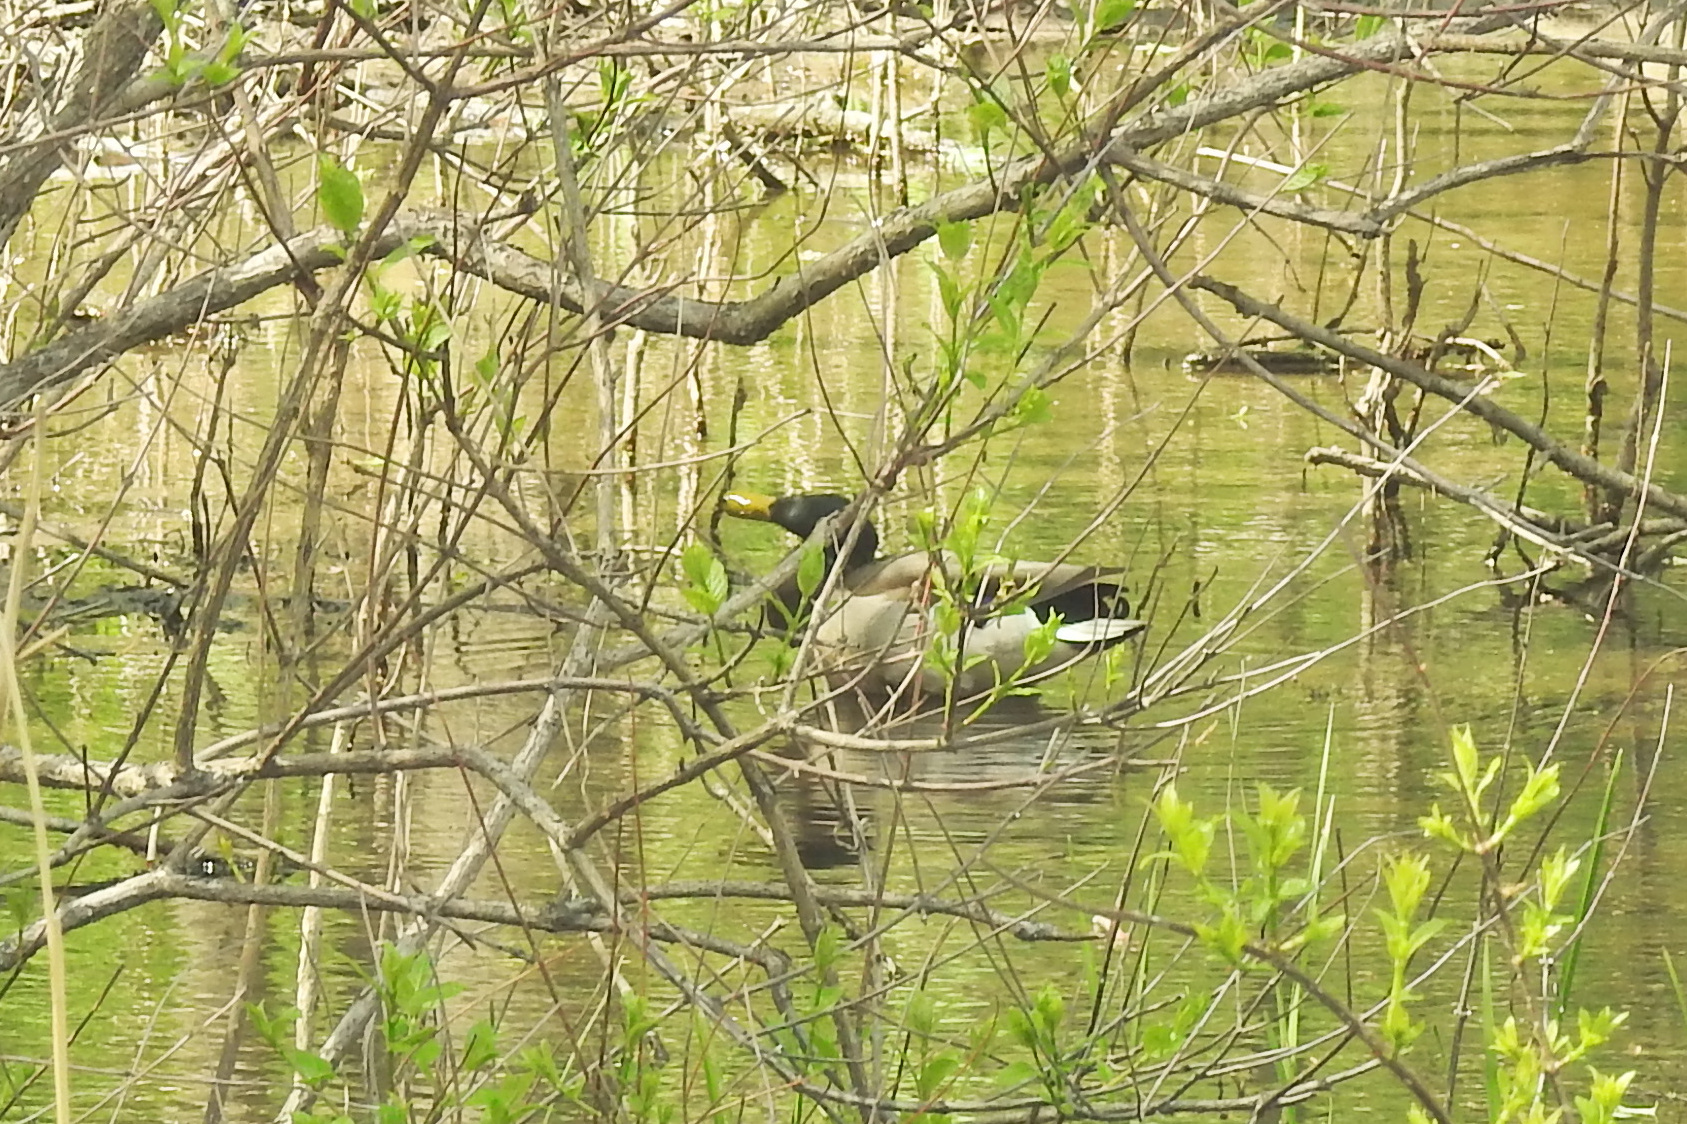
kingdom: Animalia
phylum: Chordata
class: Aves
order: Anseriformes
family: Anatidae
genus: Anas
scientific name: Anas platyrhynchos
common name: Mallard
